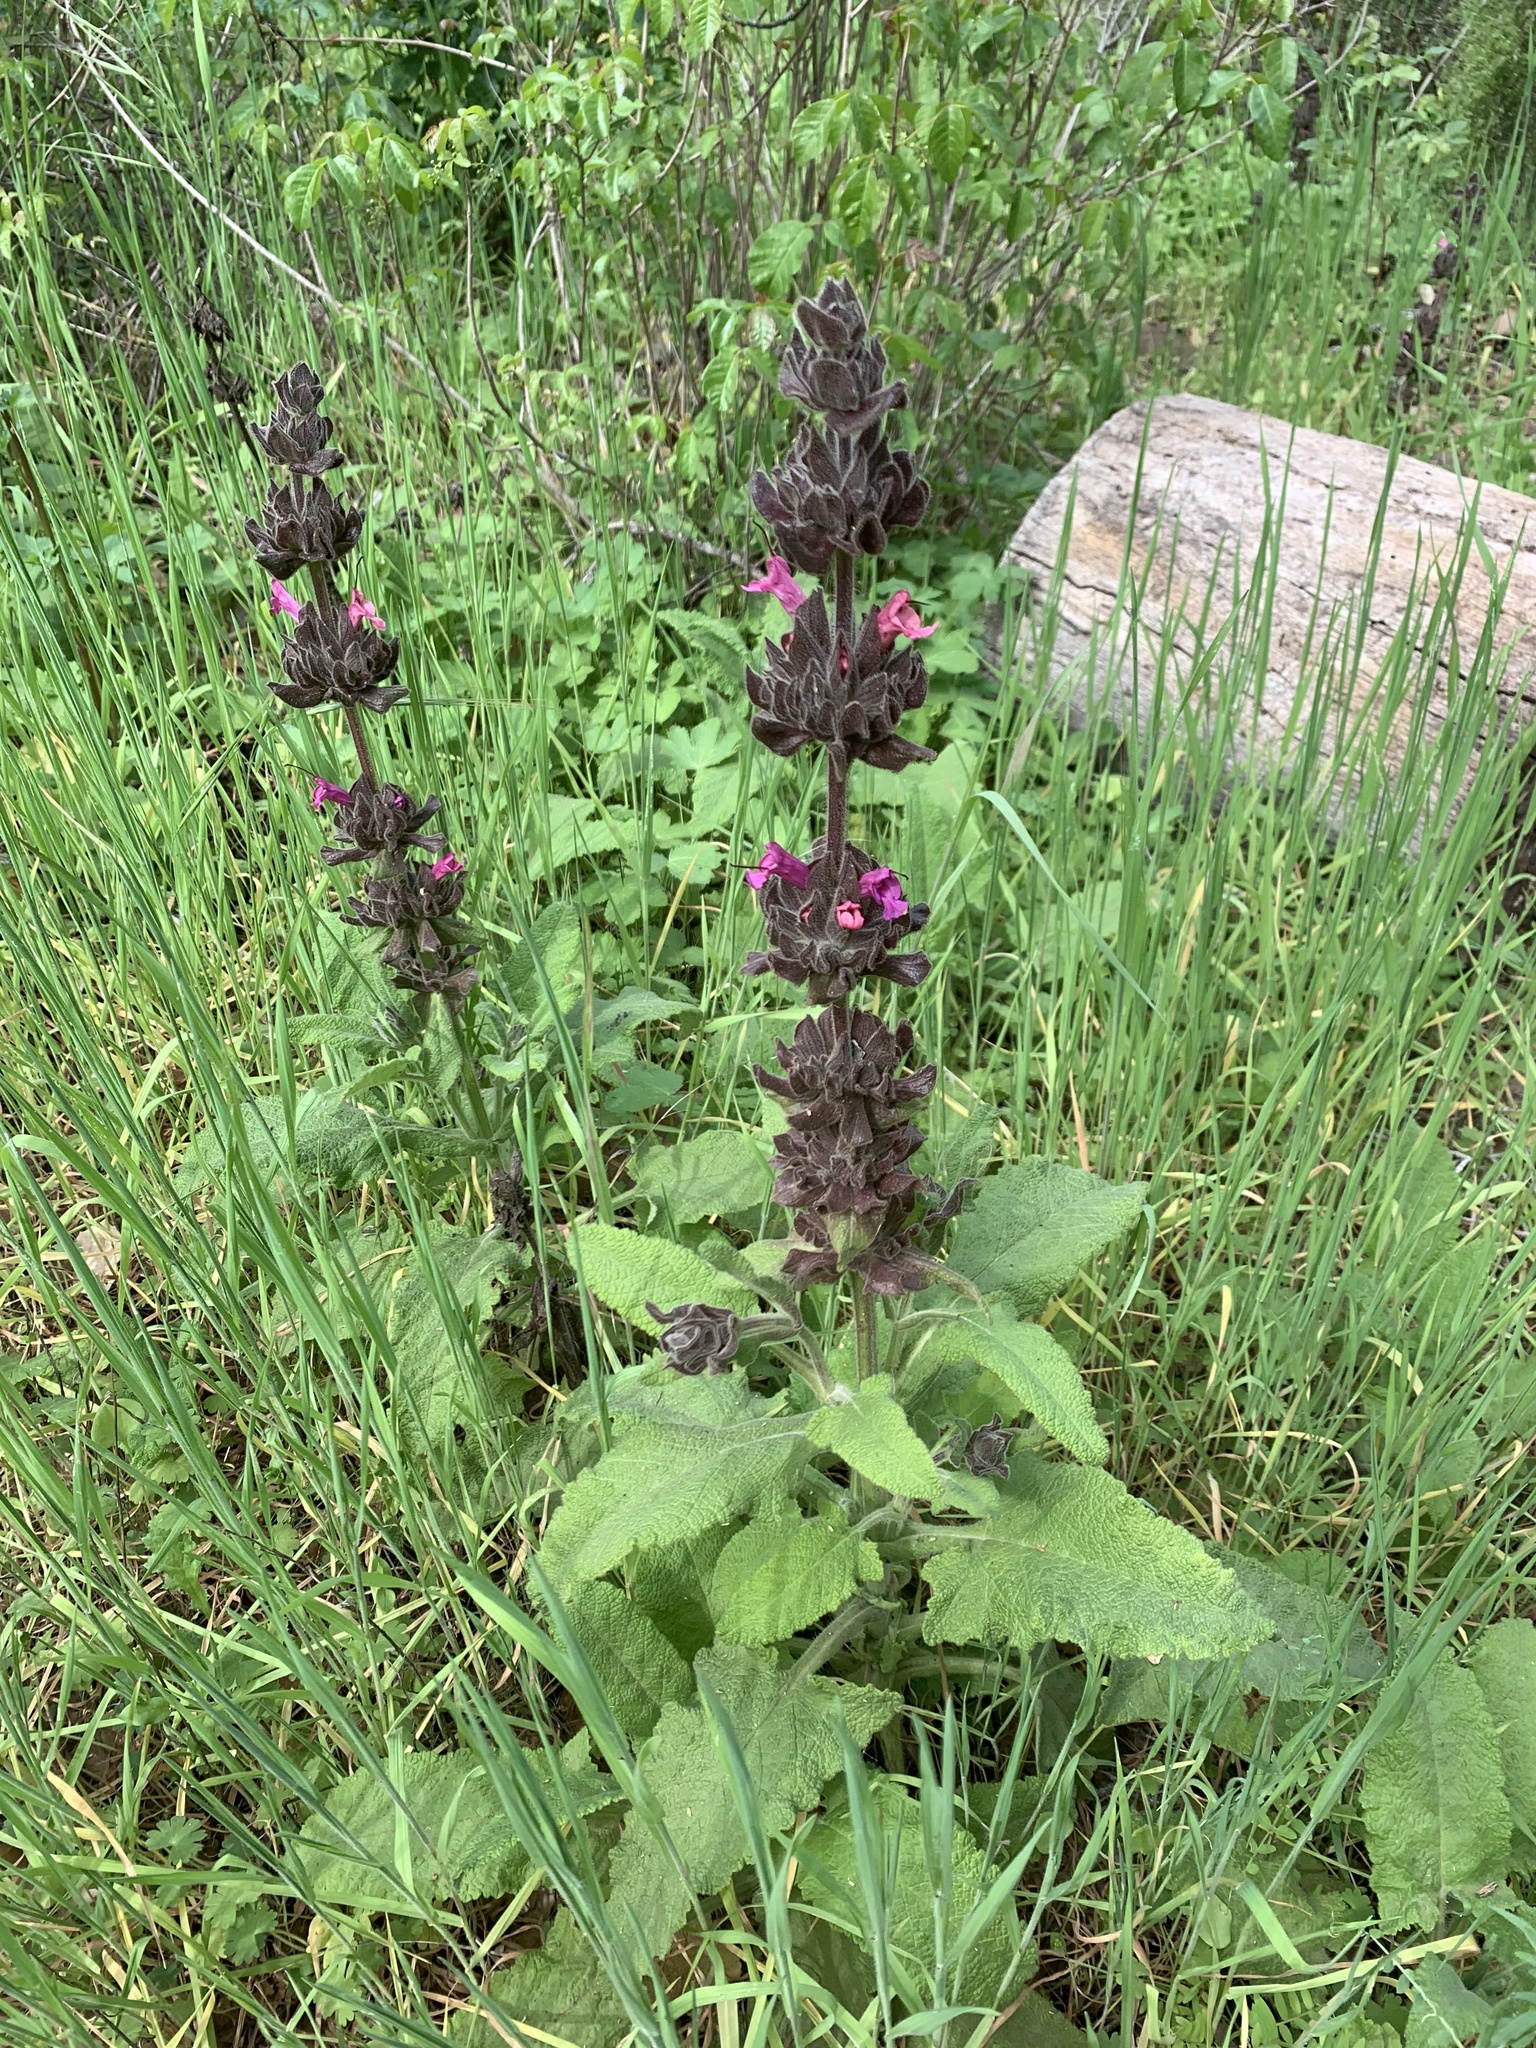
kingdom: Plantae
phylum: Tracheophyta
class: Magnoliopsida
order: Lamiales
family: Lamiaceae
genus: Salvia
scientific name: Salvia spathacea
